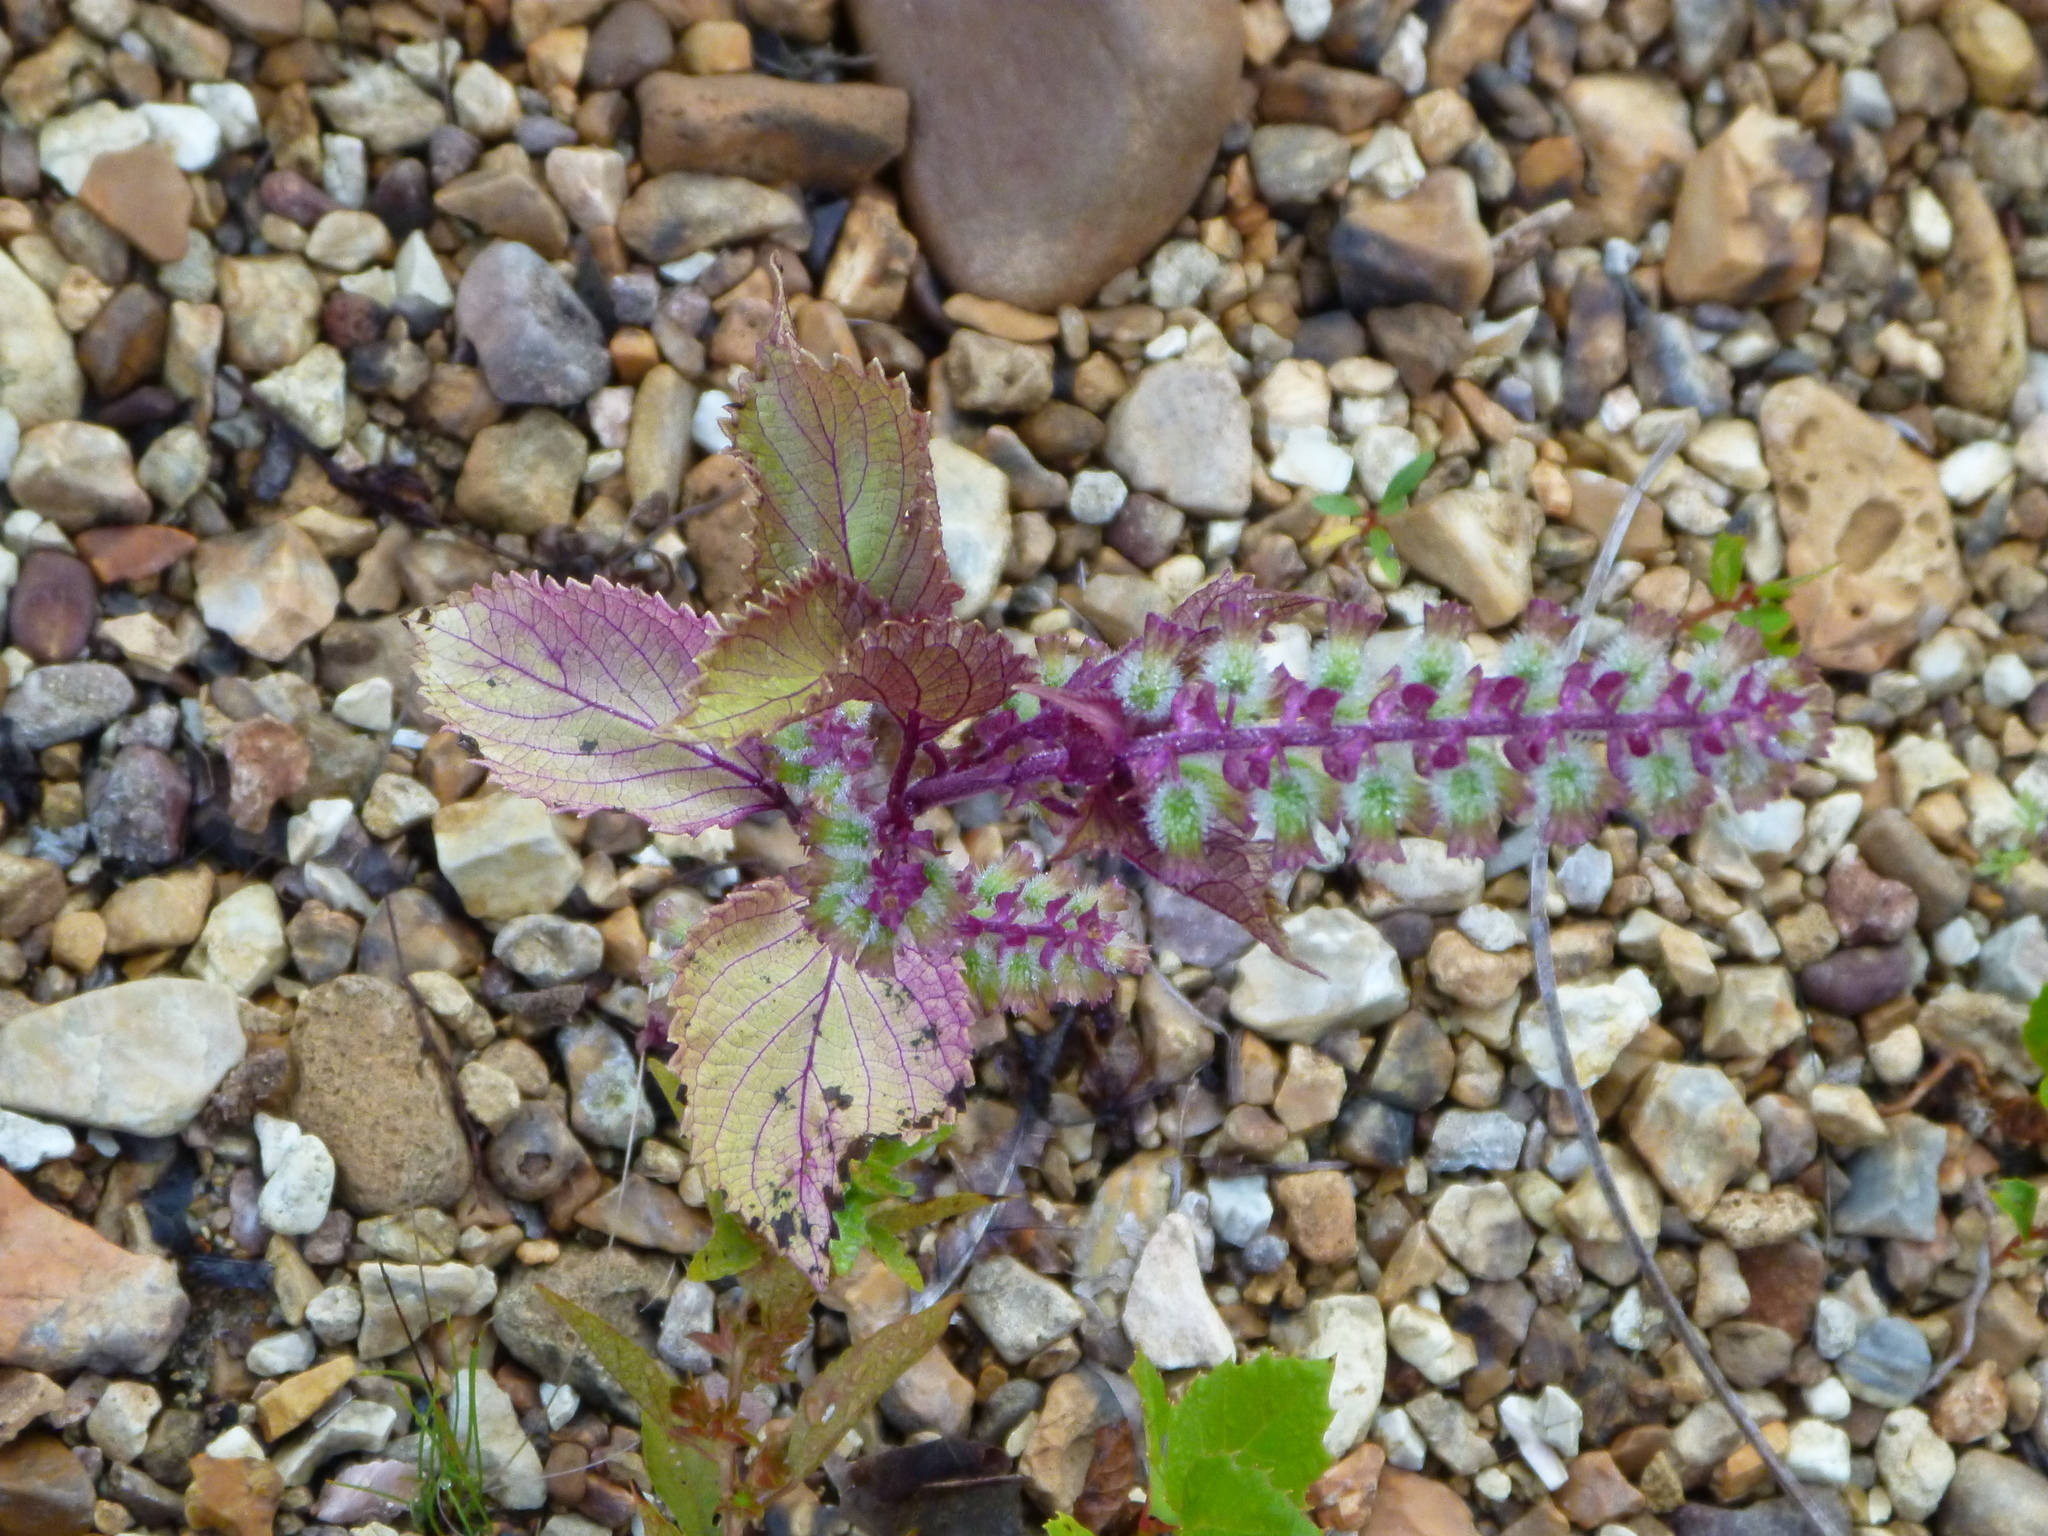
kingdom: Plantae
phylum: Tracheophyta
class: Magnoliopsida
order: Lamiales
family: Lamiaceae
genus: Perilla
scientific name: Perilla frutescens
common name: Perilla
